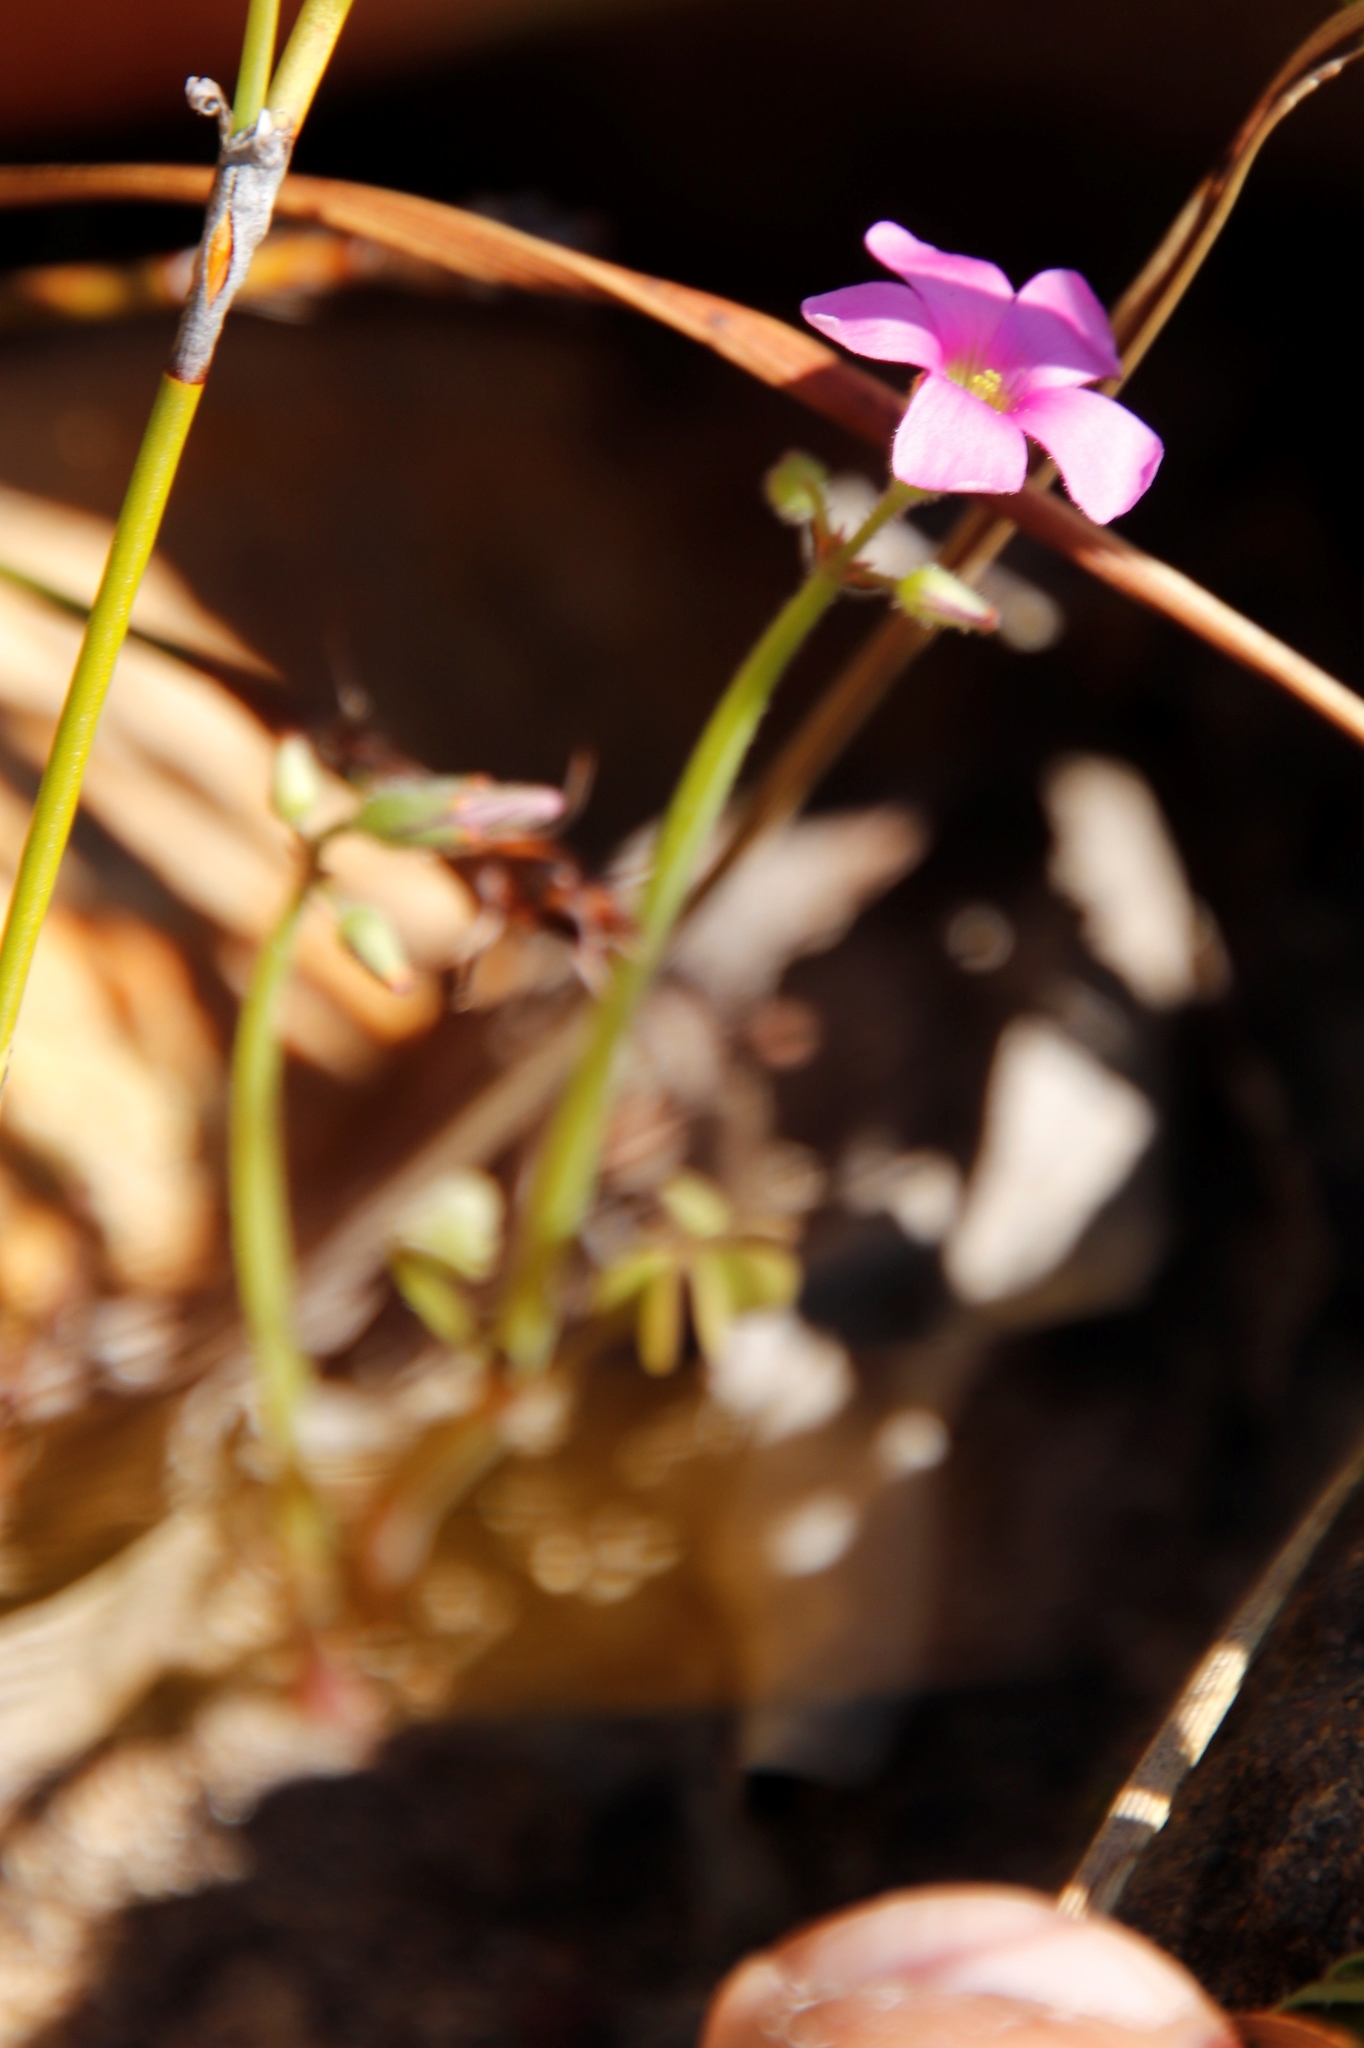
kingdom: Plantae
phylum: Tracheophyta
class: Magnoliopsida
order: Oxalidales
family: Oxalidaceae
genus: Oxalis
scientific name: Oxalis livida
